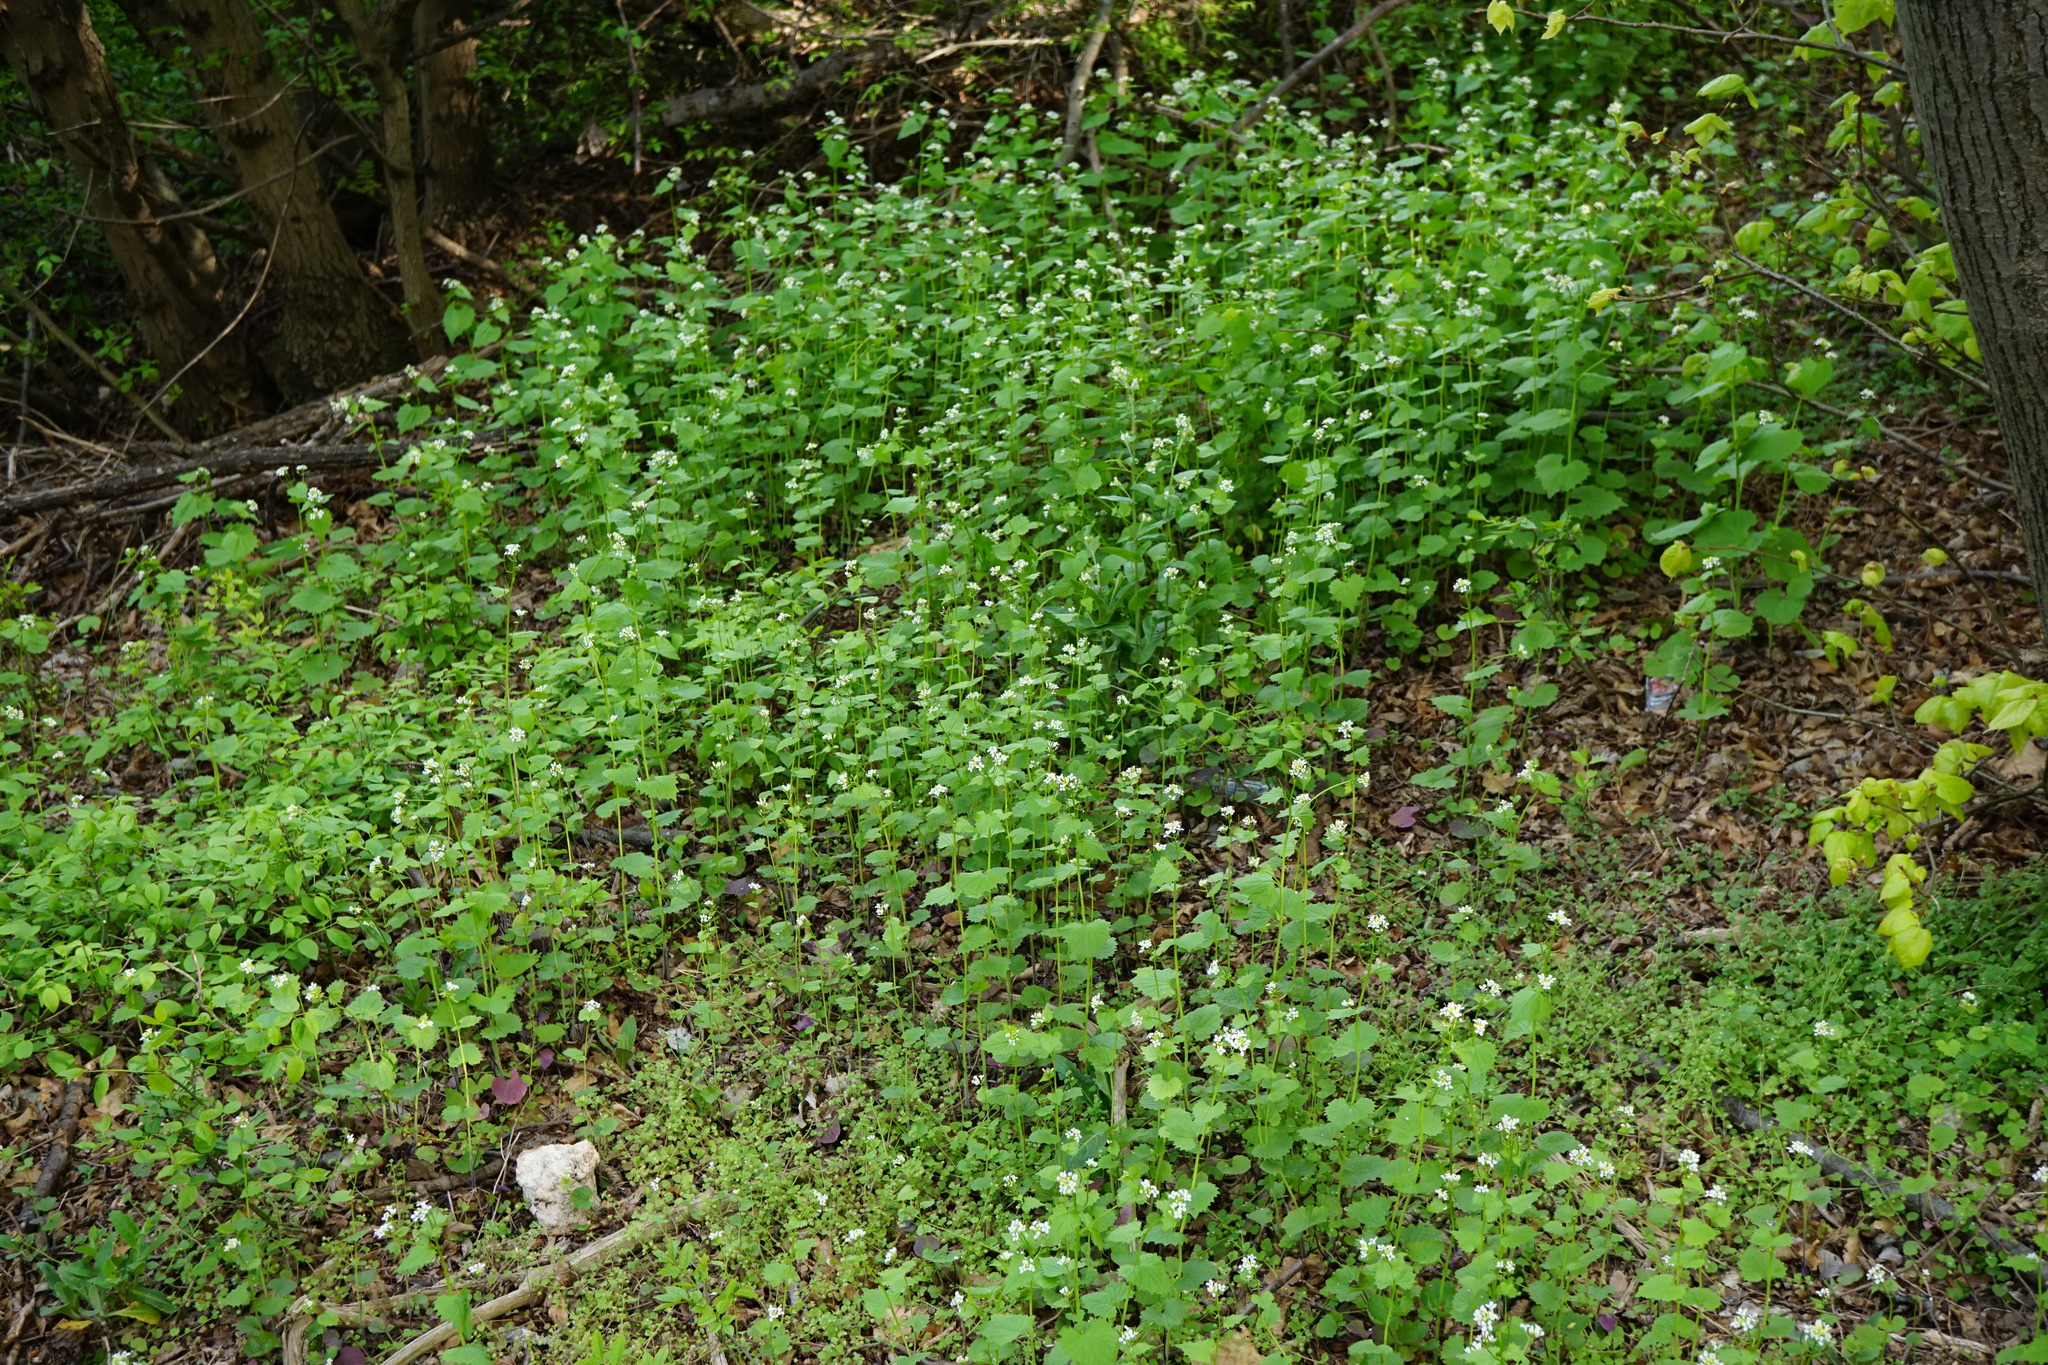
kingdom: Plantae
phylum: Tracheophyta
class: Magnoliopsida
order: Brassicales
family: Brassicaceae
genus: Alliaria
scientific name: Alliaria petiolata
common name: Garlic mustard
